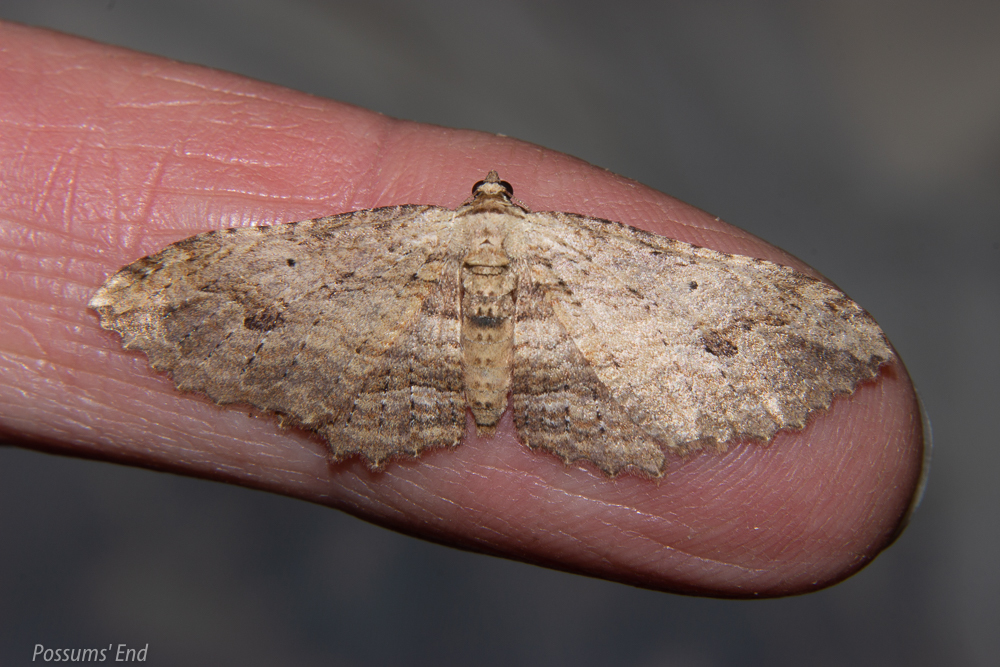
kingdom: Animalia
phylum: Arthropoda
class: Insecta
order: Lepidoptera
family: Geometridae
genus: Austrocidaria
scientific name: Austrocidaria bipartita
